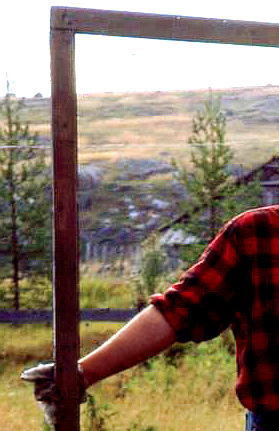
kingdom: Plantae
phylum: Tracheophyta
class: Pinopsida
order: Pinales
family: Pinaceae
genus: Pinus
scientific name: Pinus sylvestris
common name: Scots pine
